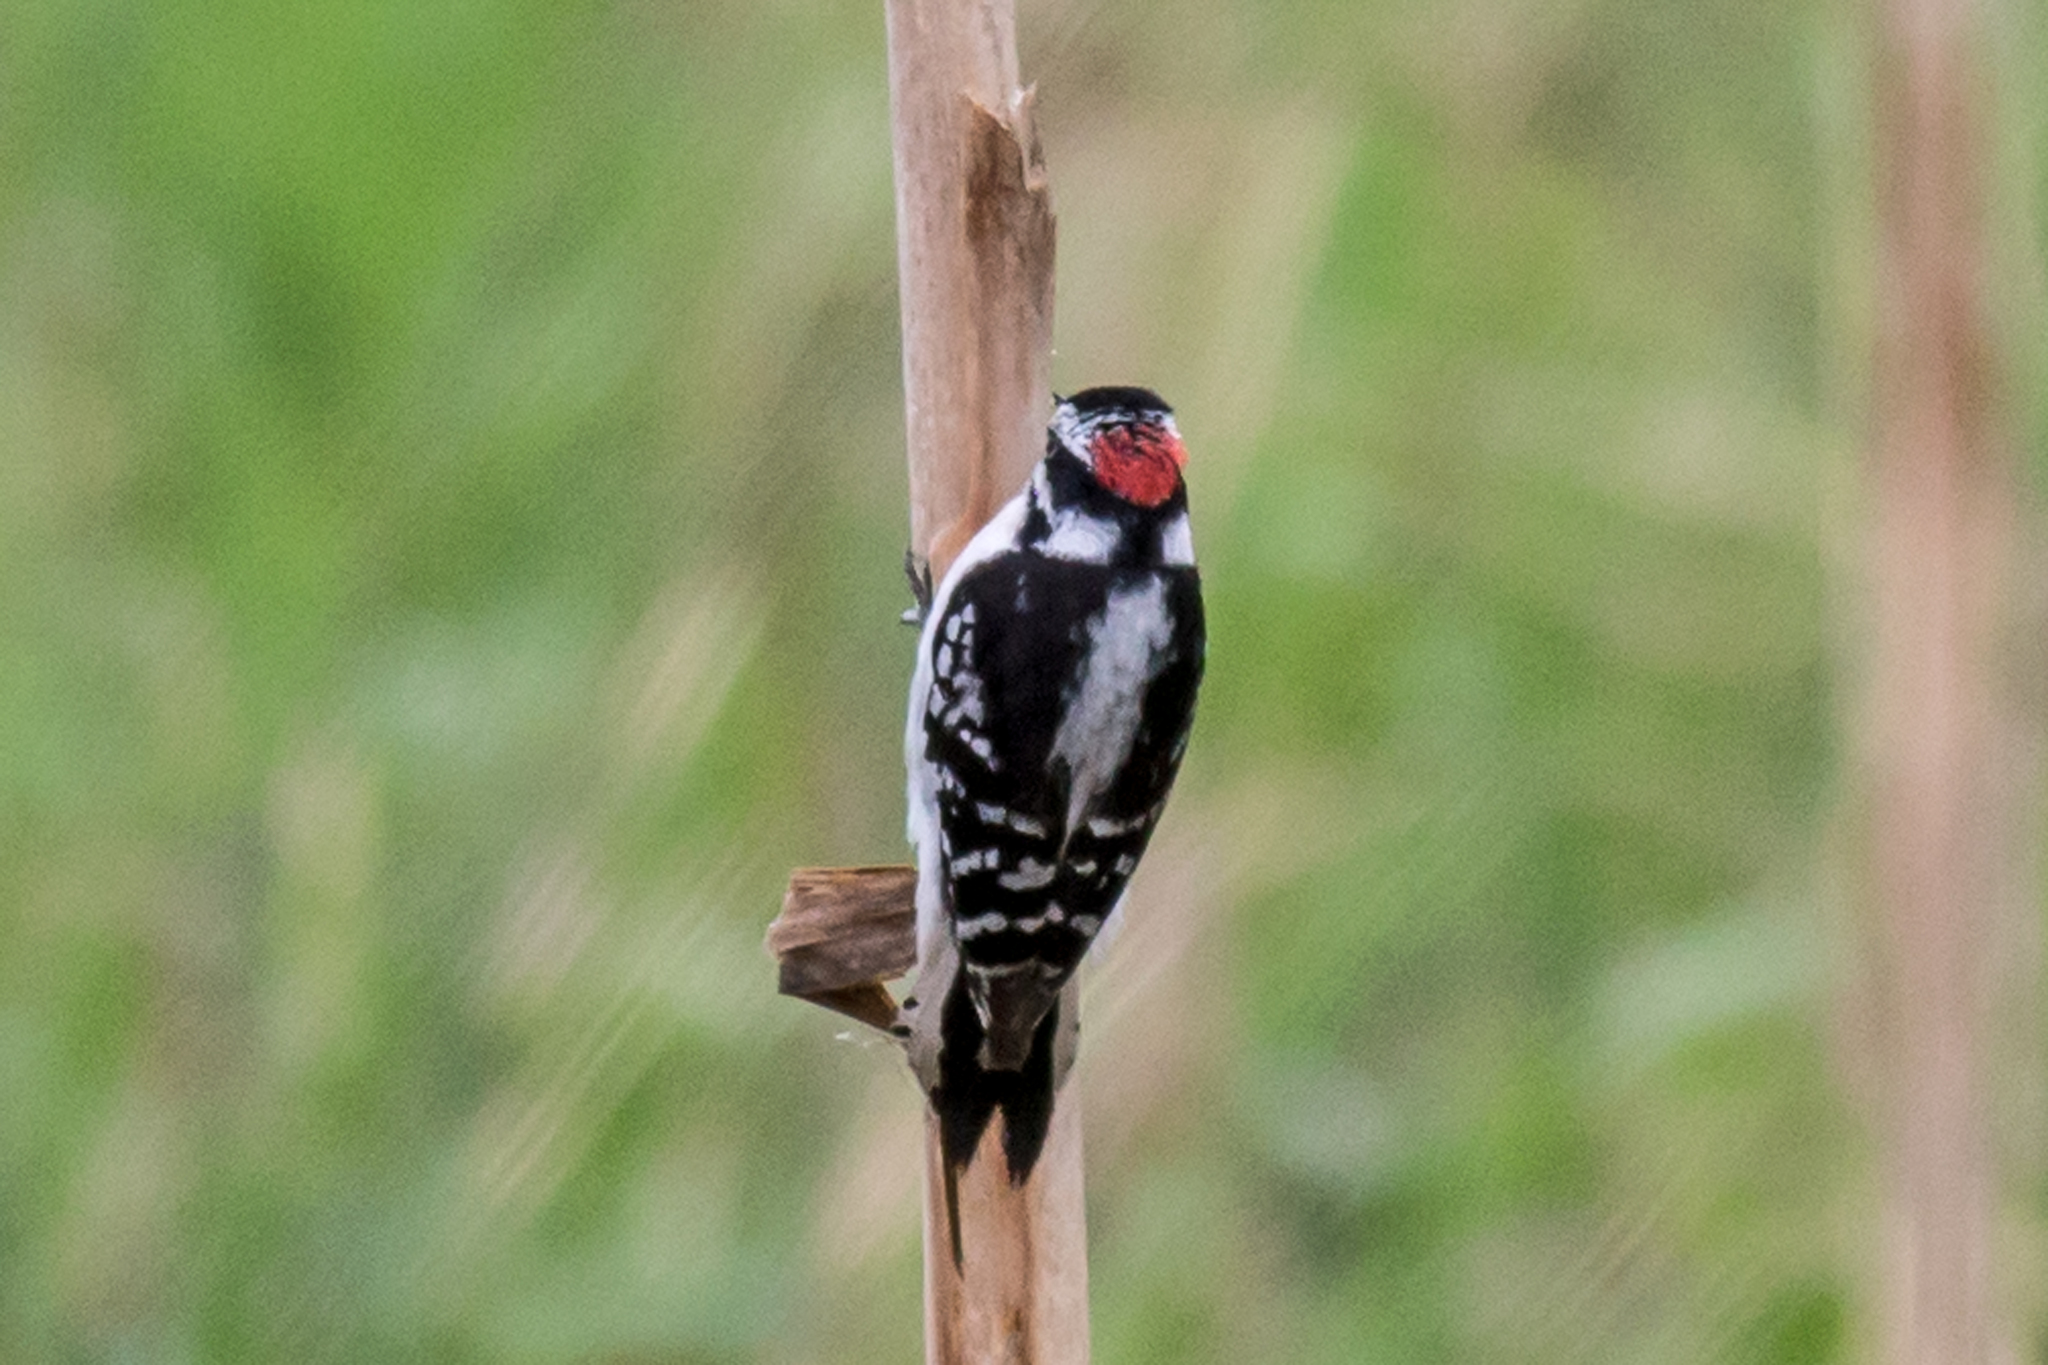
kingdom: Animalia
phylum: Chordata
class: Aves
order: Piciformes
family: Picidae
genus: Dryobates
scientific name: Dryobates pubescens
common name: Downy woodpecker
